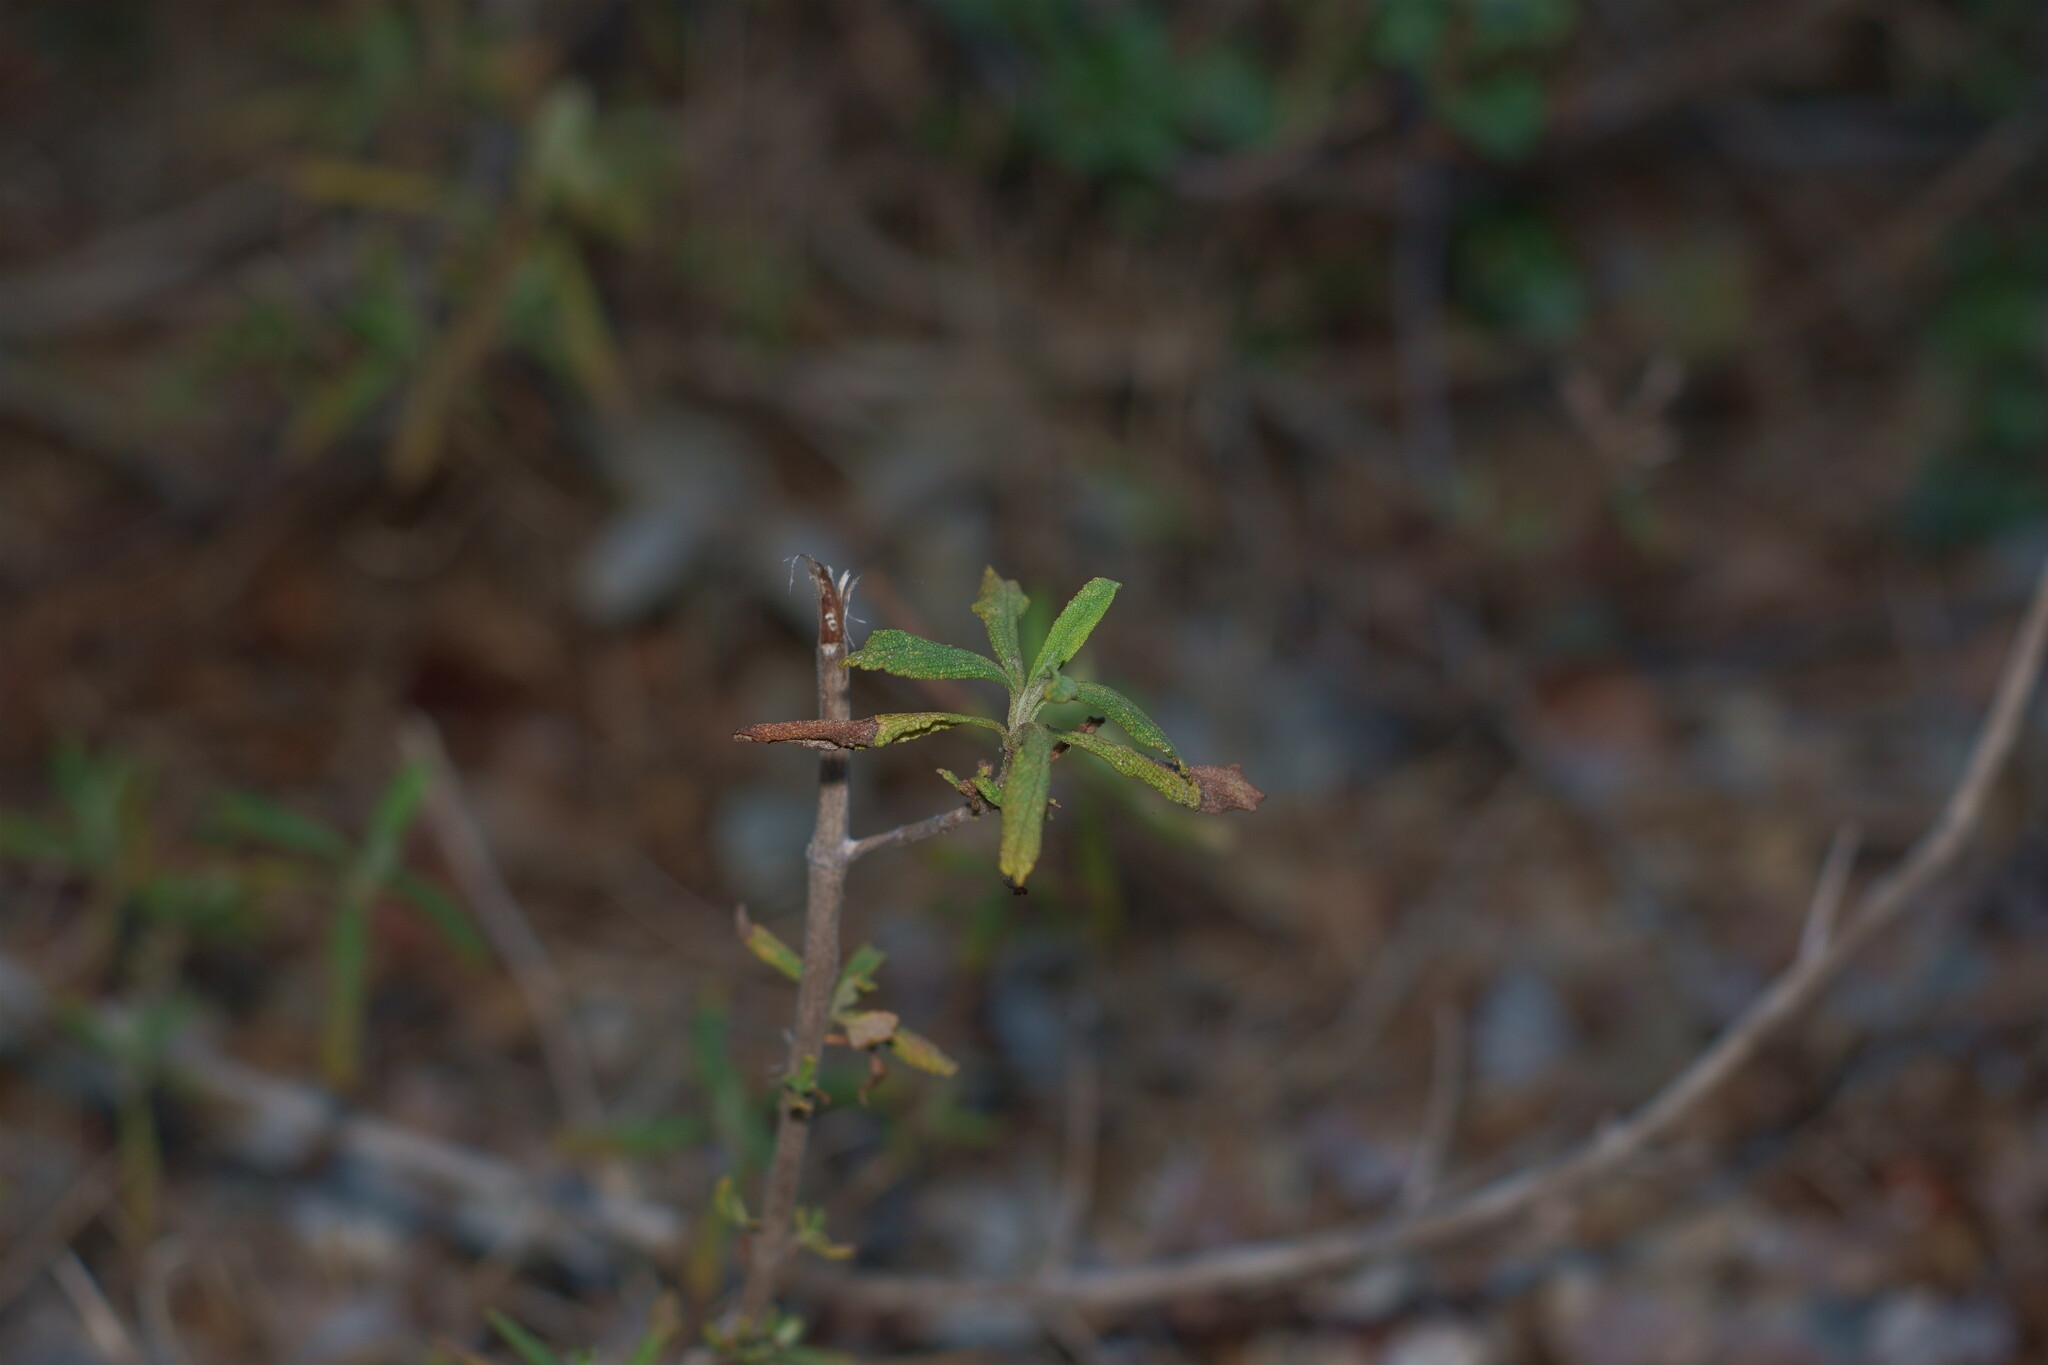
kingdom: Plantae
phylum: Tracheophyta
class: Magnoliopsida
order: Lamiales
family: Lamiaceae
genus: Salvia
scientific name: Salvia mellifera
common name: Black sage
